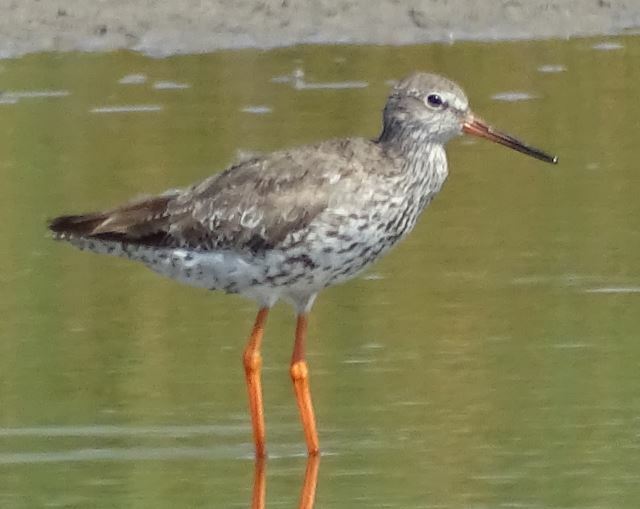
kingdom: Animalia
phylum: Chordata
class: Aves
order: Charadriiformes
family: Scolopacidae
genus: Tringa
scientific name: Tringa totanus
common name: Common redshank
